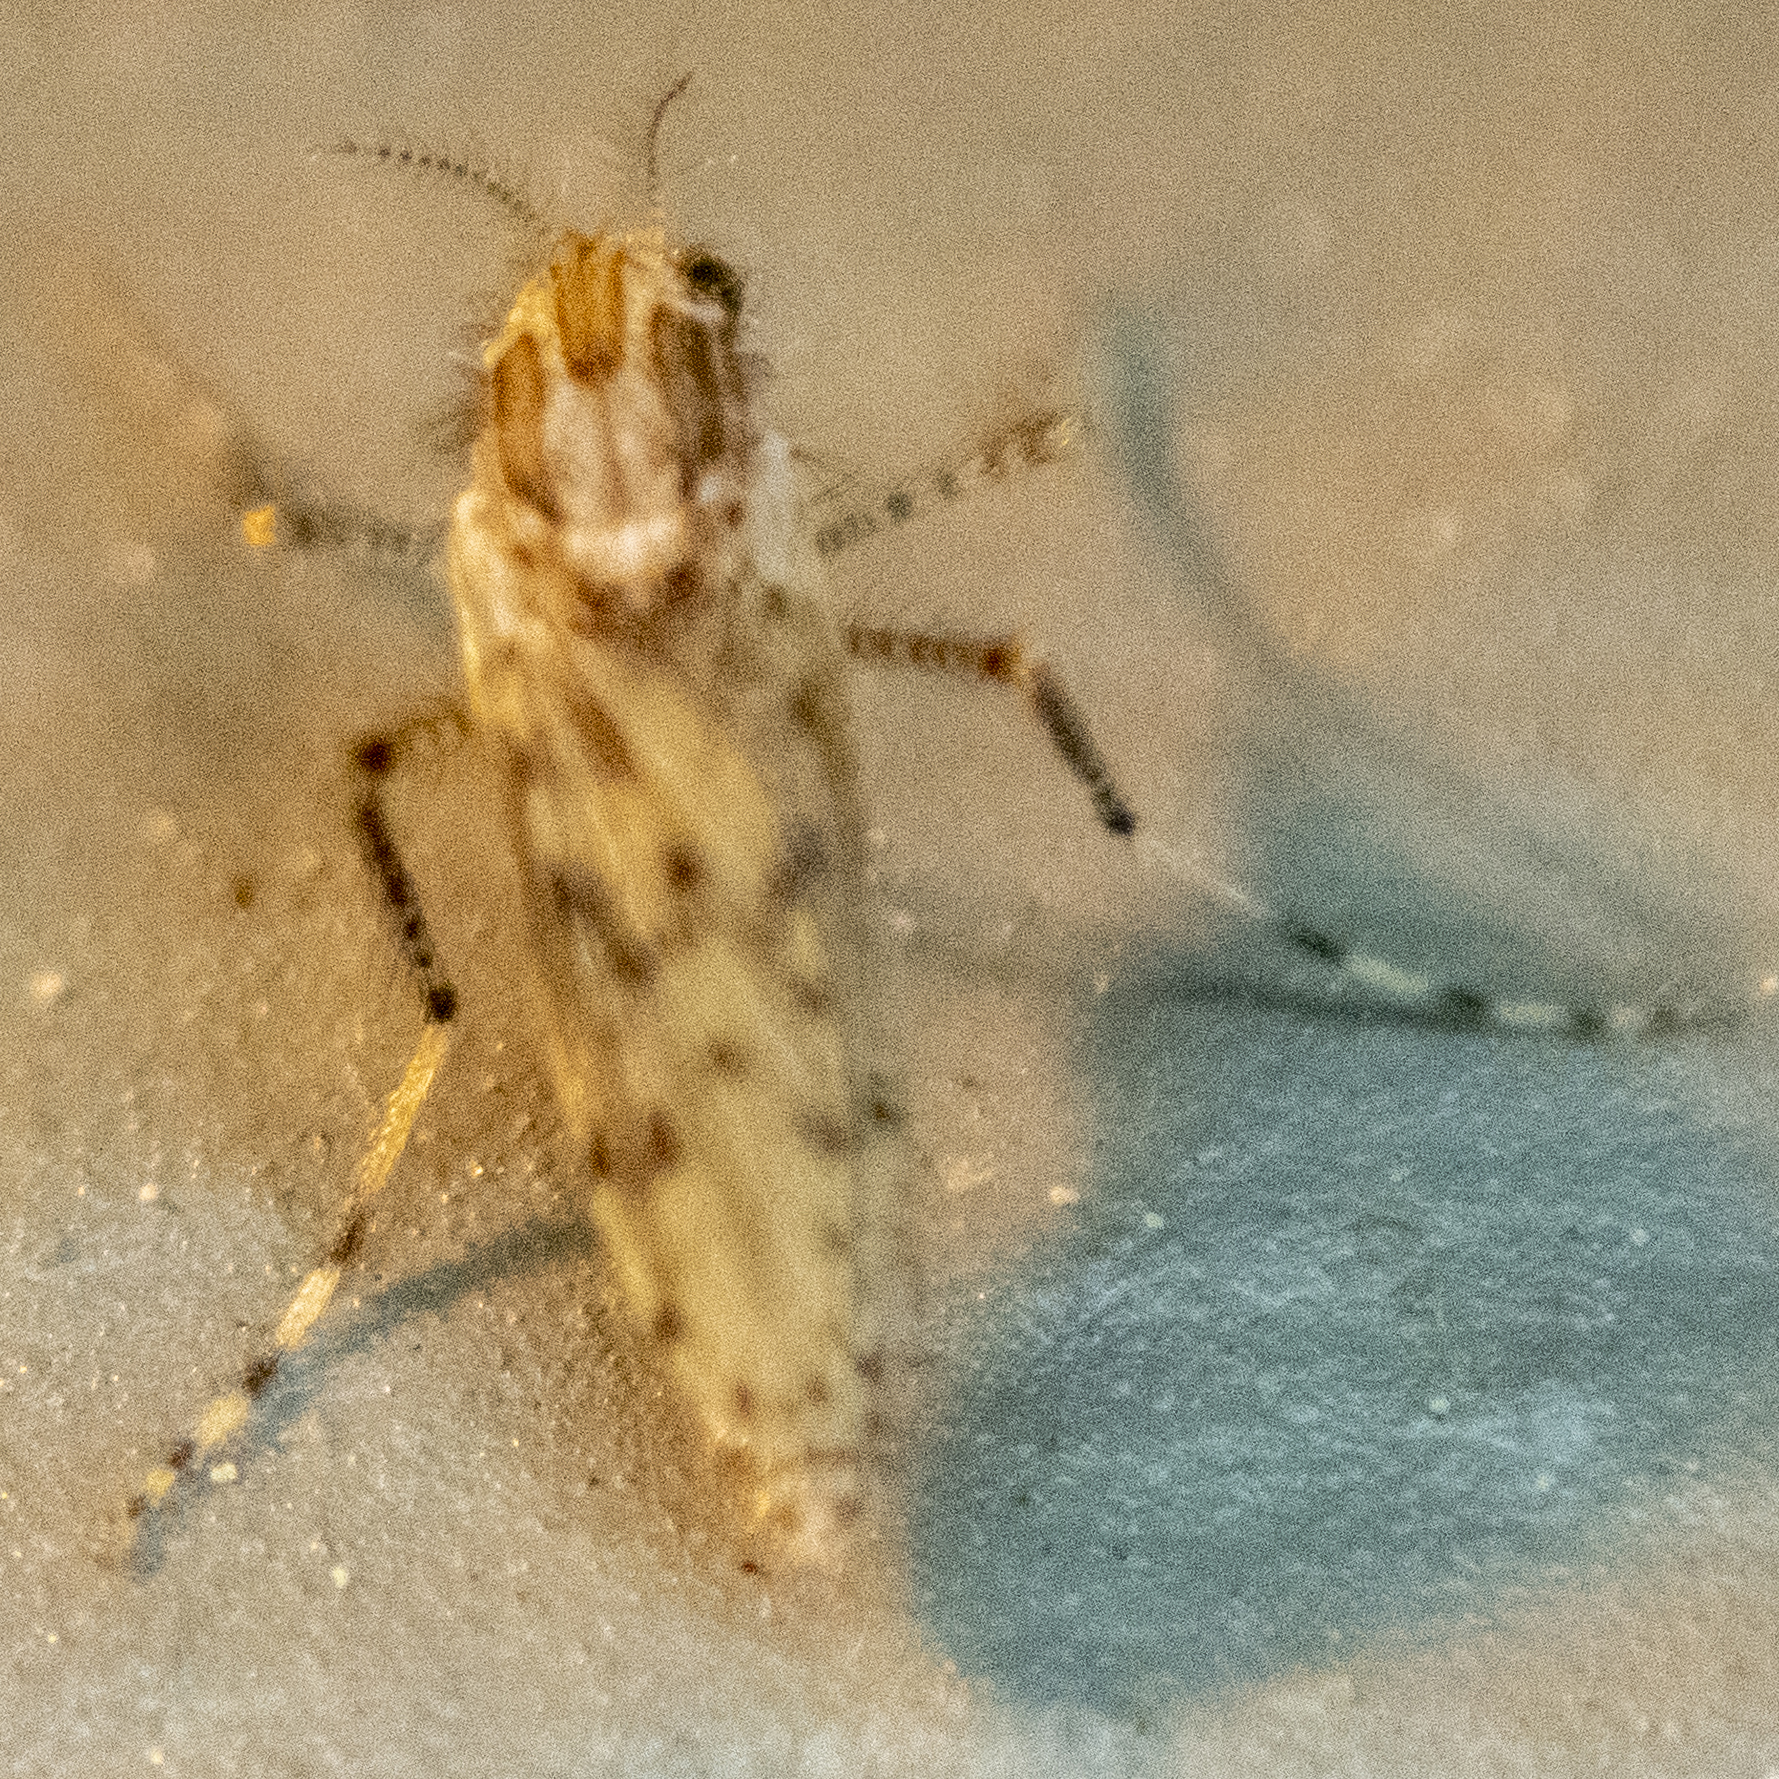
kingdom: Animalia
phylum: Arthropoda
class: Insecta
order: Diptera
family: Chaoboridae
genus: Chaoborus
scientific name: Chaoborus punctipennis
